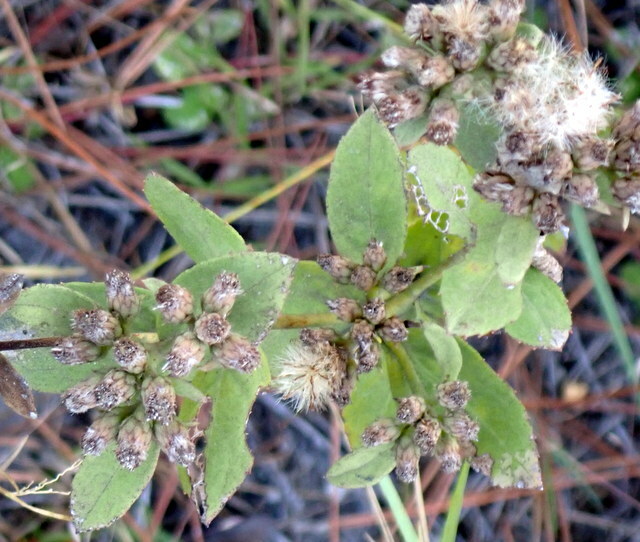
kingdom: Plantae
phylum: Tracheophyta
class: Magnoliopsida
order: Asterales
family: Asteraceae
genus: Pluchea
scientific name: Pluchea foetida
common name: Stinking camphorweed
